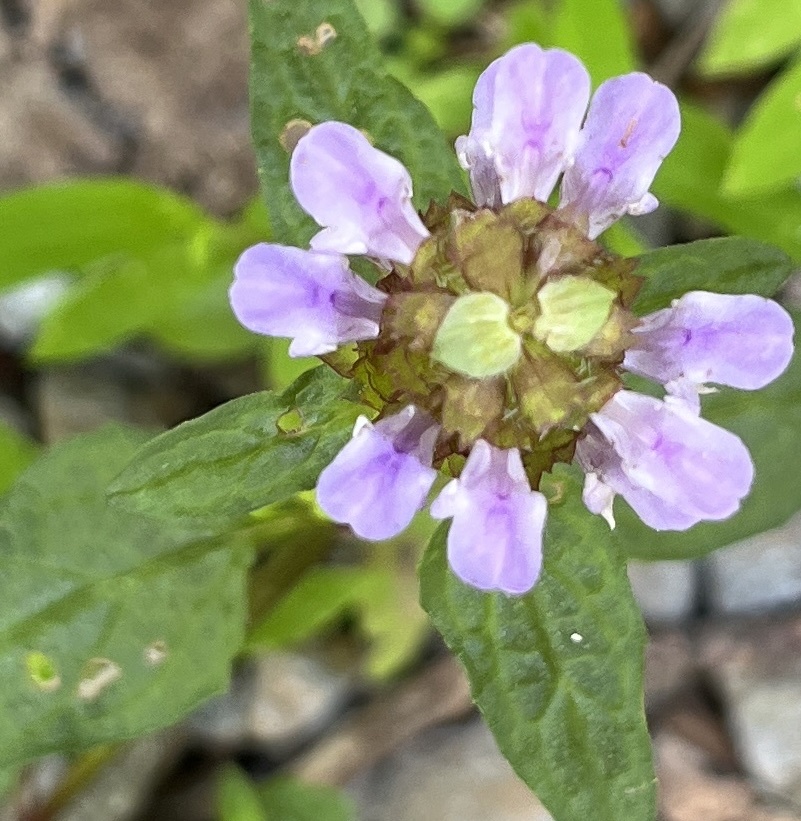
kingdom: Plantae
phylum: Tracheophyta
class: Magnoliopsida
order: Lamiales
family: Lamiaceae
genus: Prunella
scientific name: Prunella vulgaris
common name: Heal-all
